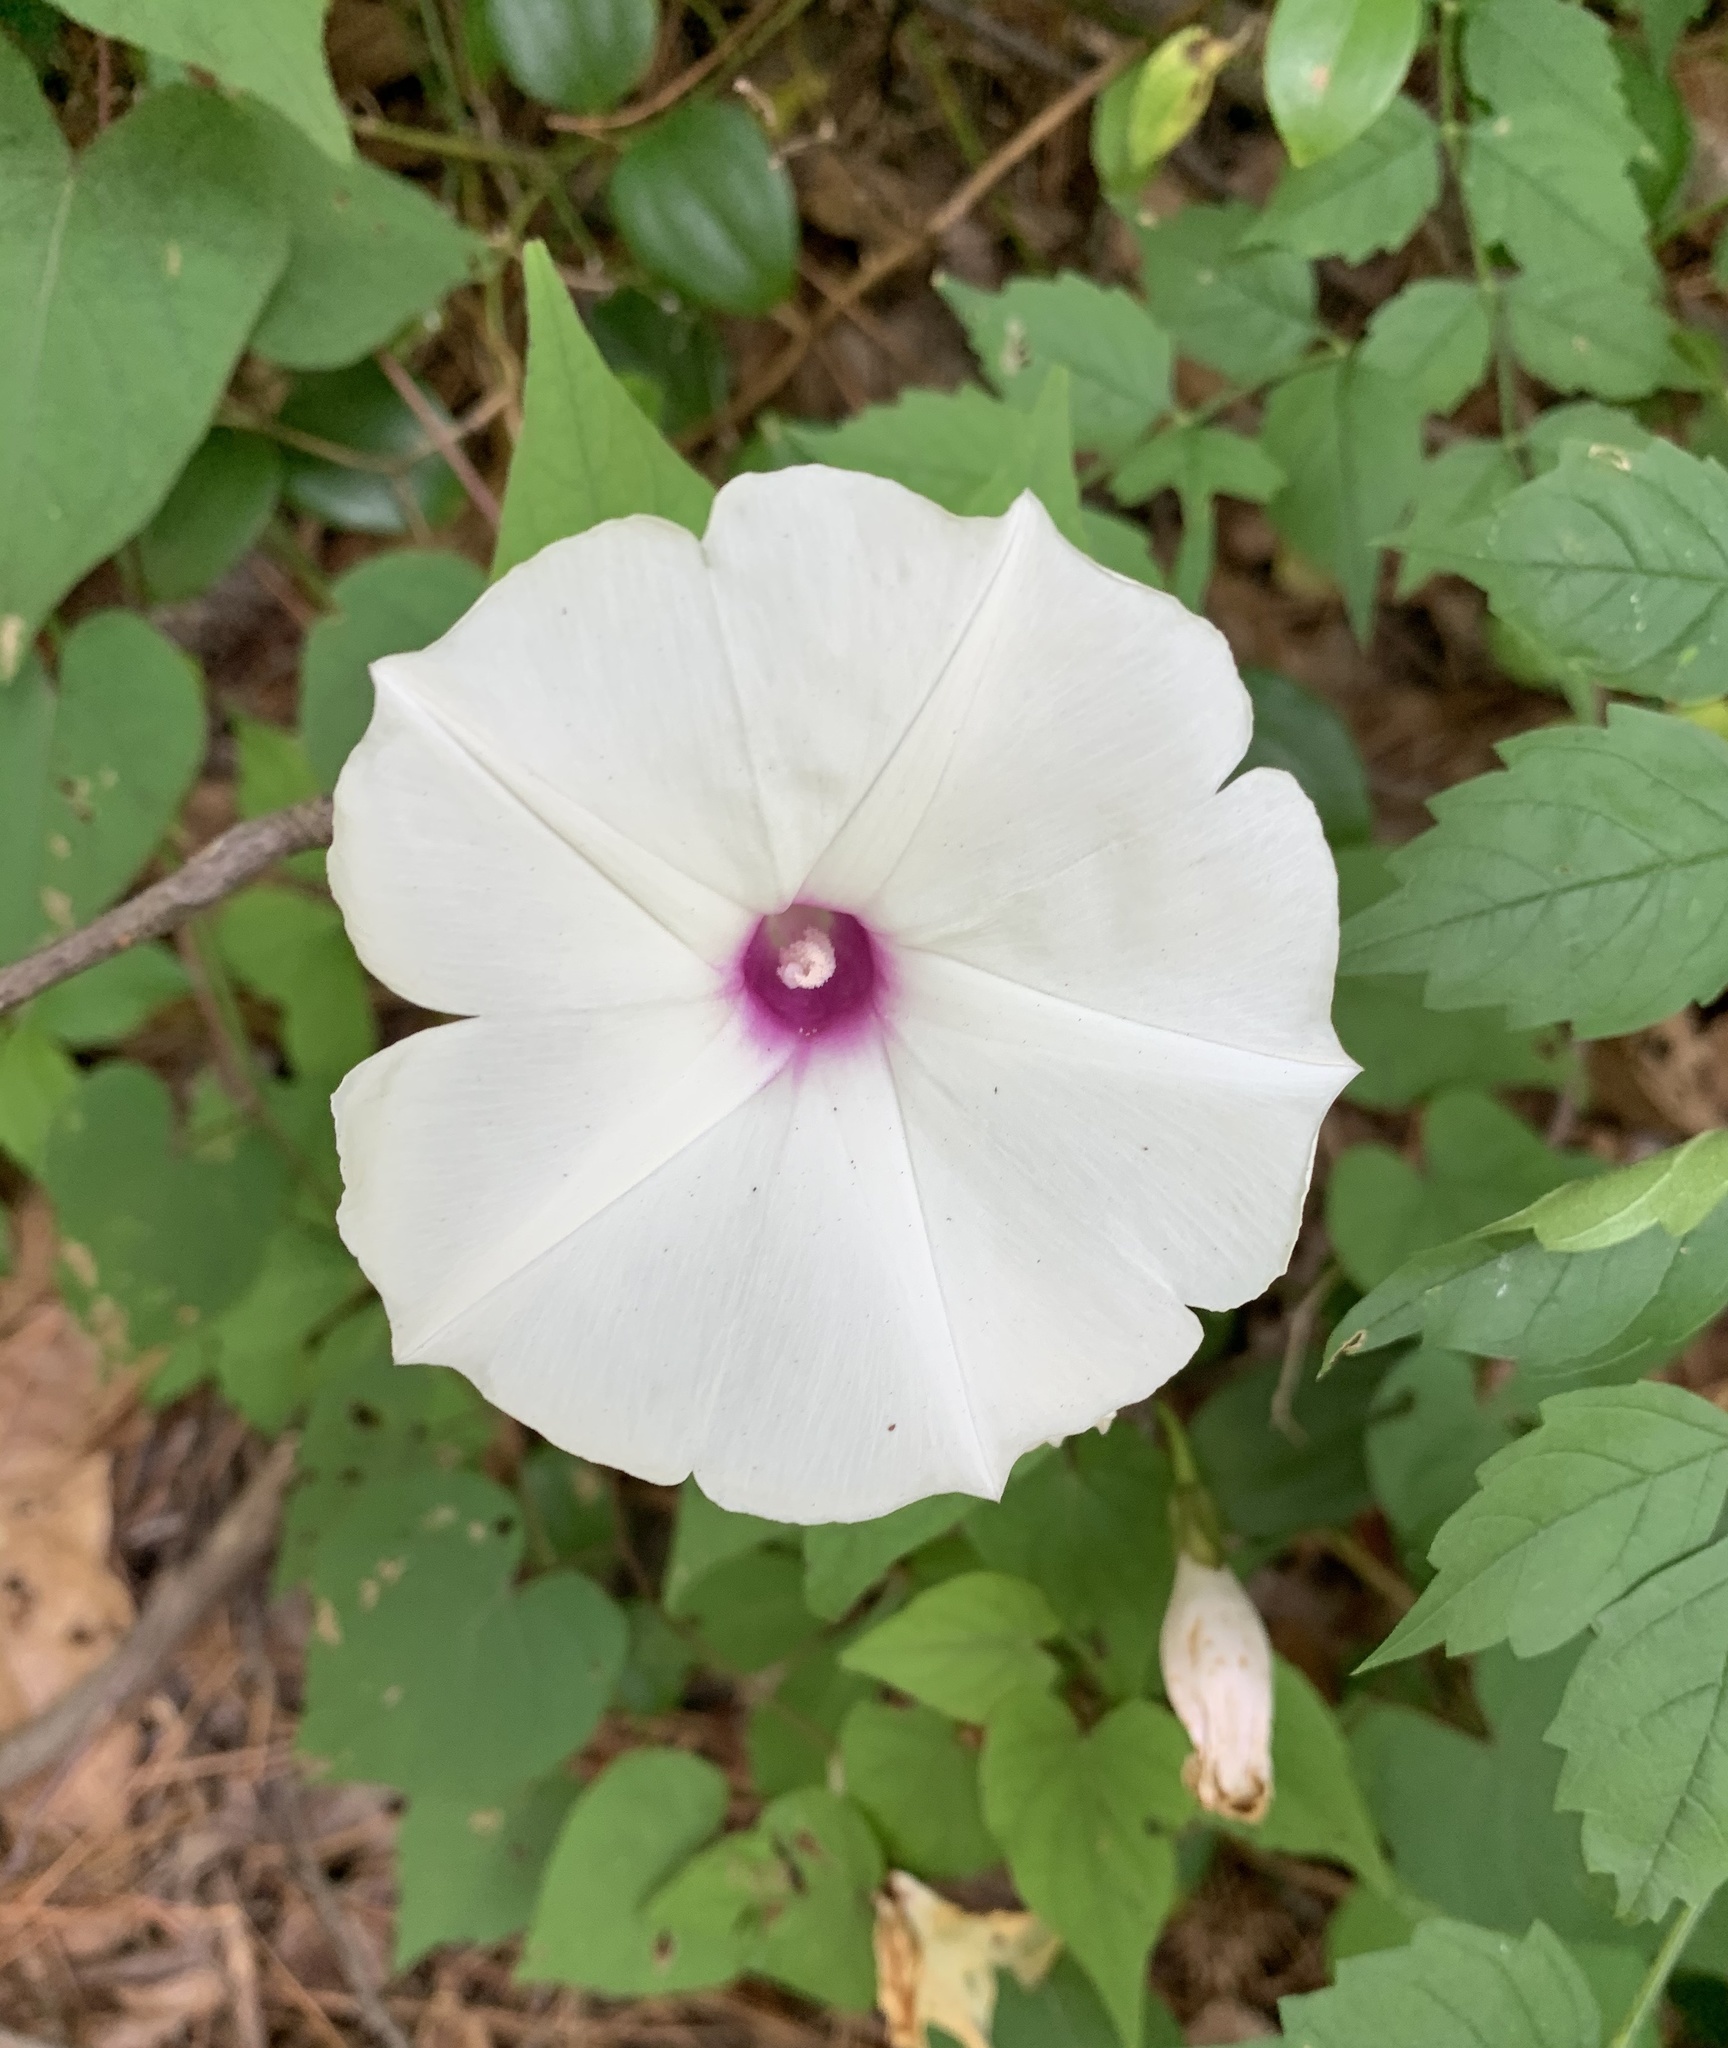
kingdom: Plantae
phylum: Tracheophyta
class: Magnoliopsida
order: Solanales
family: Convolvulaceae
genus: Ipomoea
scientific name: Ipomoea pandurata
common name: Man-of-the-earth
